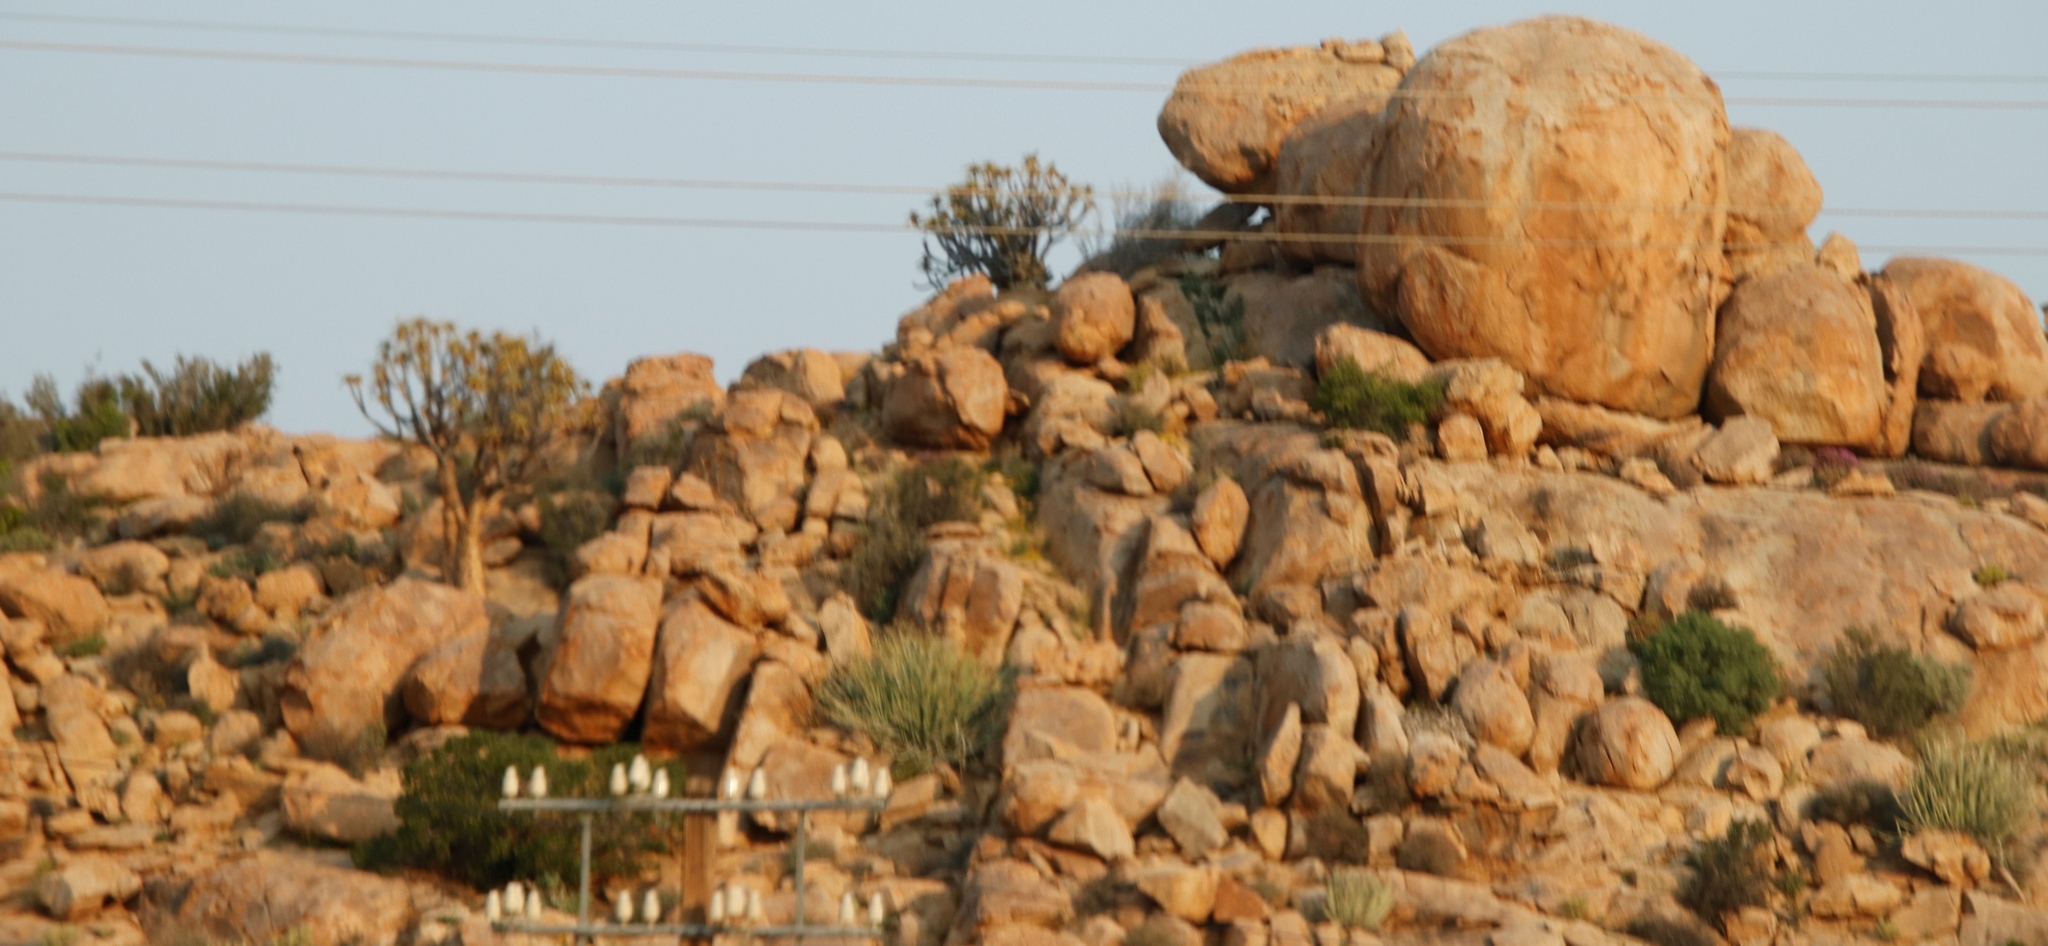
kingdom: Plantae
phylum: Tracheophyta
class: Liliopsida
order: Asparagales
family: Asphodelaceae
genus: Aloidendron
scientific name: Aloidendron dichotomum
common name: Quiver tree
